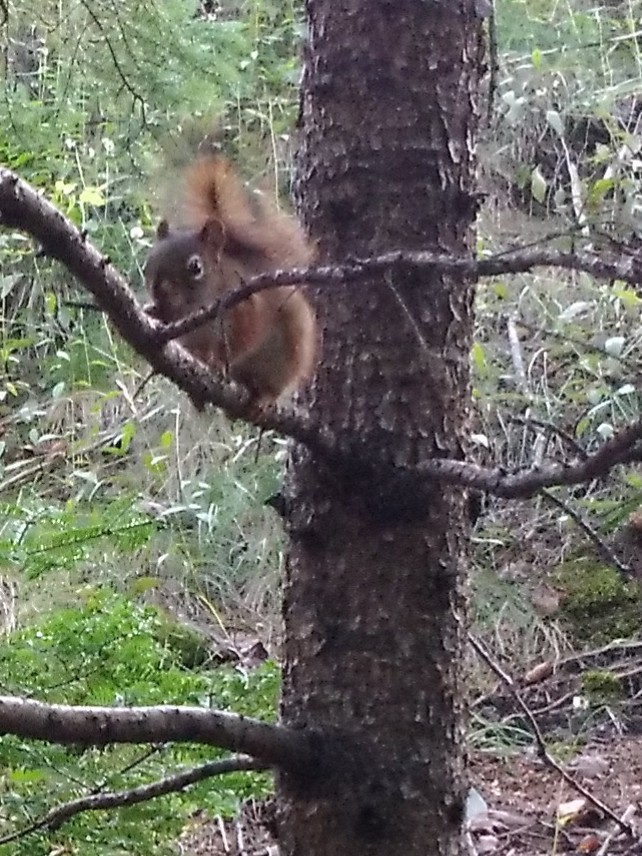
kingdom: Animalia
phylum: Chordata
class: Mammalia
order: Rodentia
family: Sciuridae
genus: Tamiasciurus
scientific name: Tamiasciurus hudsonicus
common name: Red squirrel
